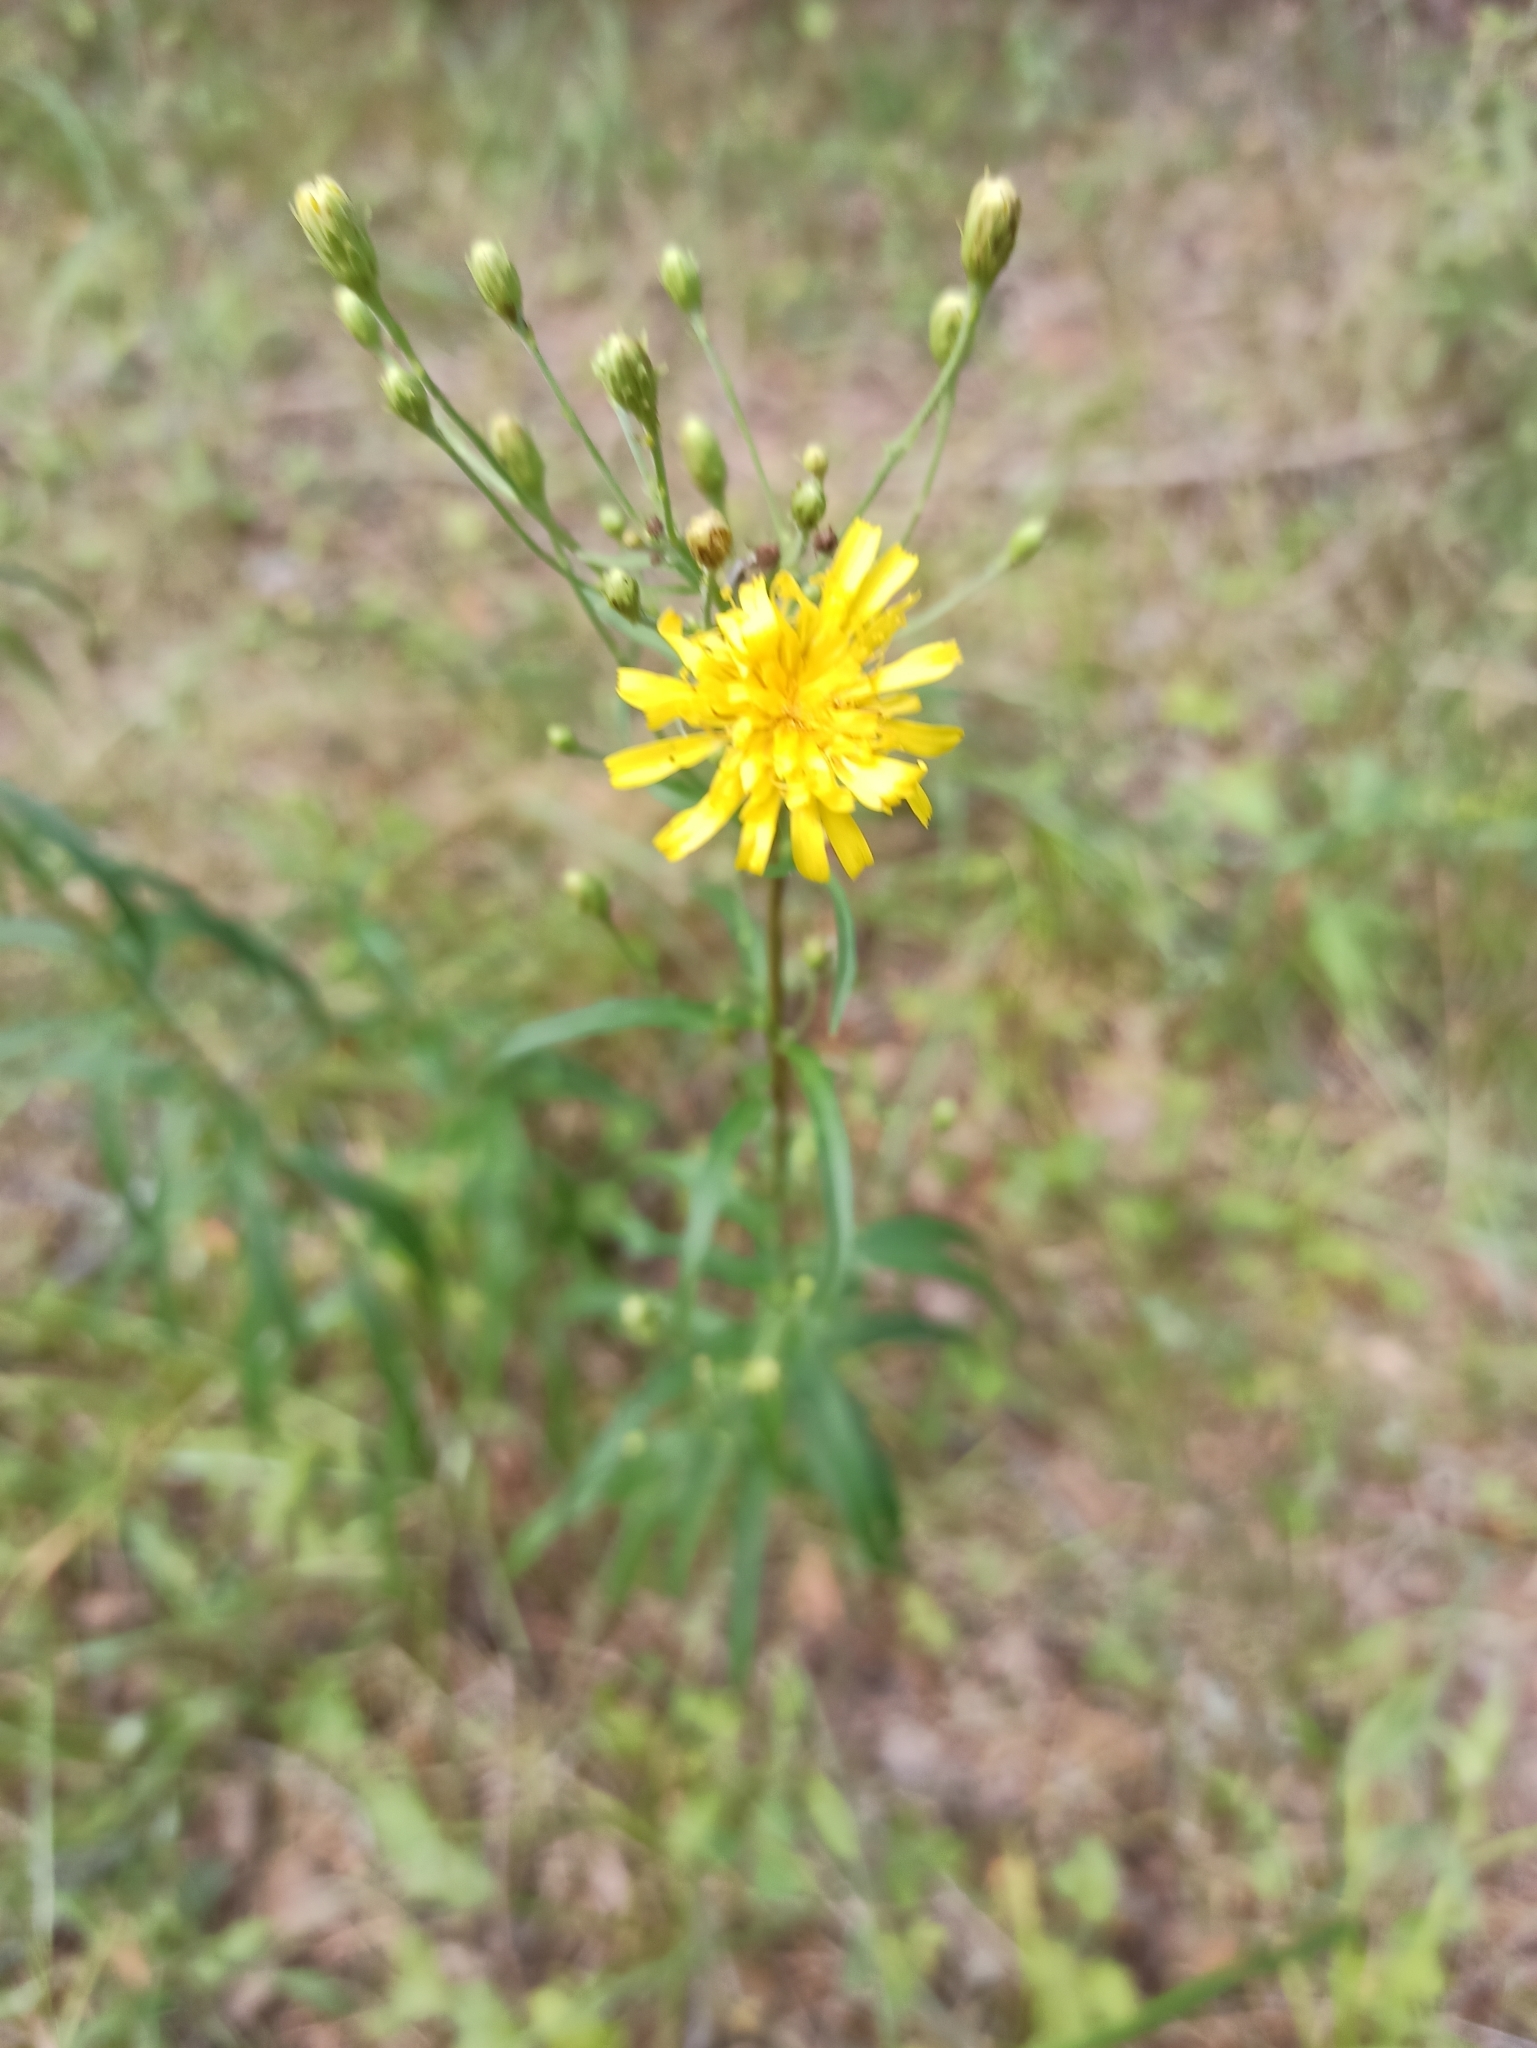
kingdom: Plantae
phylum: Tracheophyta
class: Magnoliopsida
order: Asterales
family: Asteraceae
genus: Hieracium
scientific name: Hieracium umbellatum
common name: Northern hawkweed
